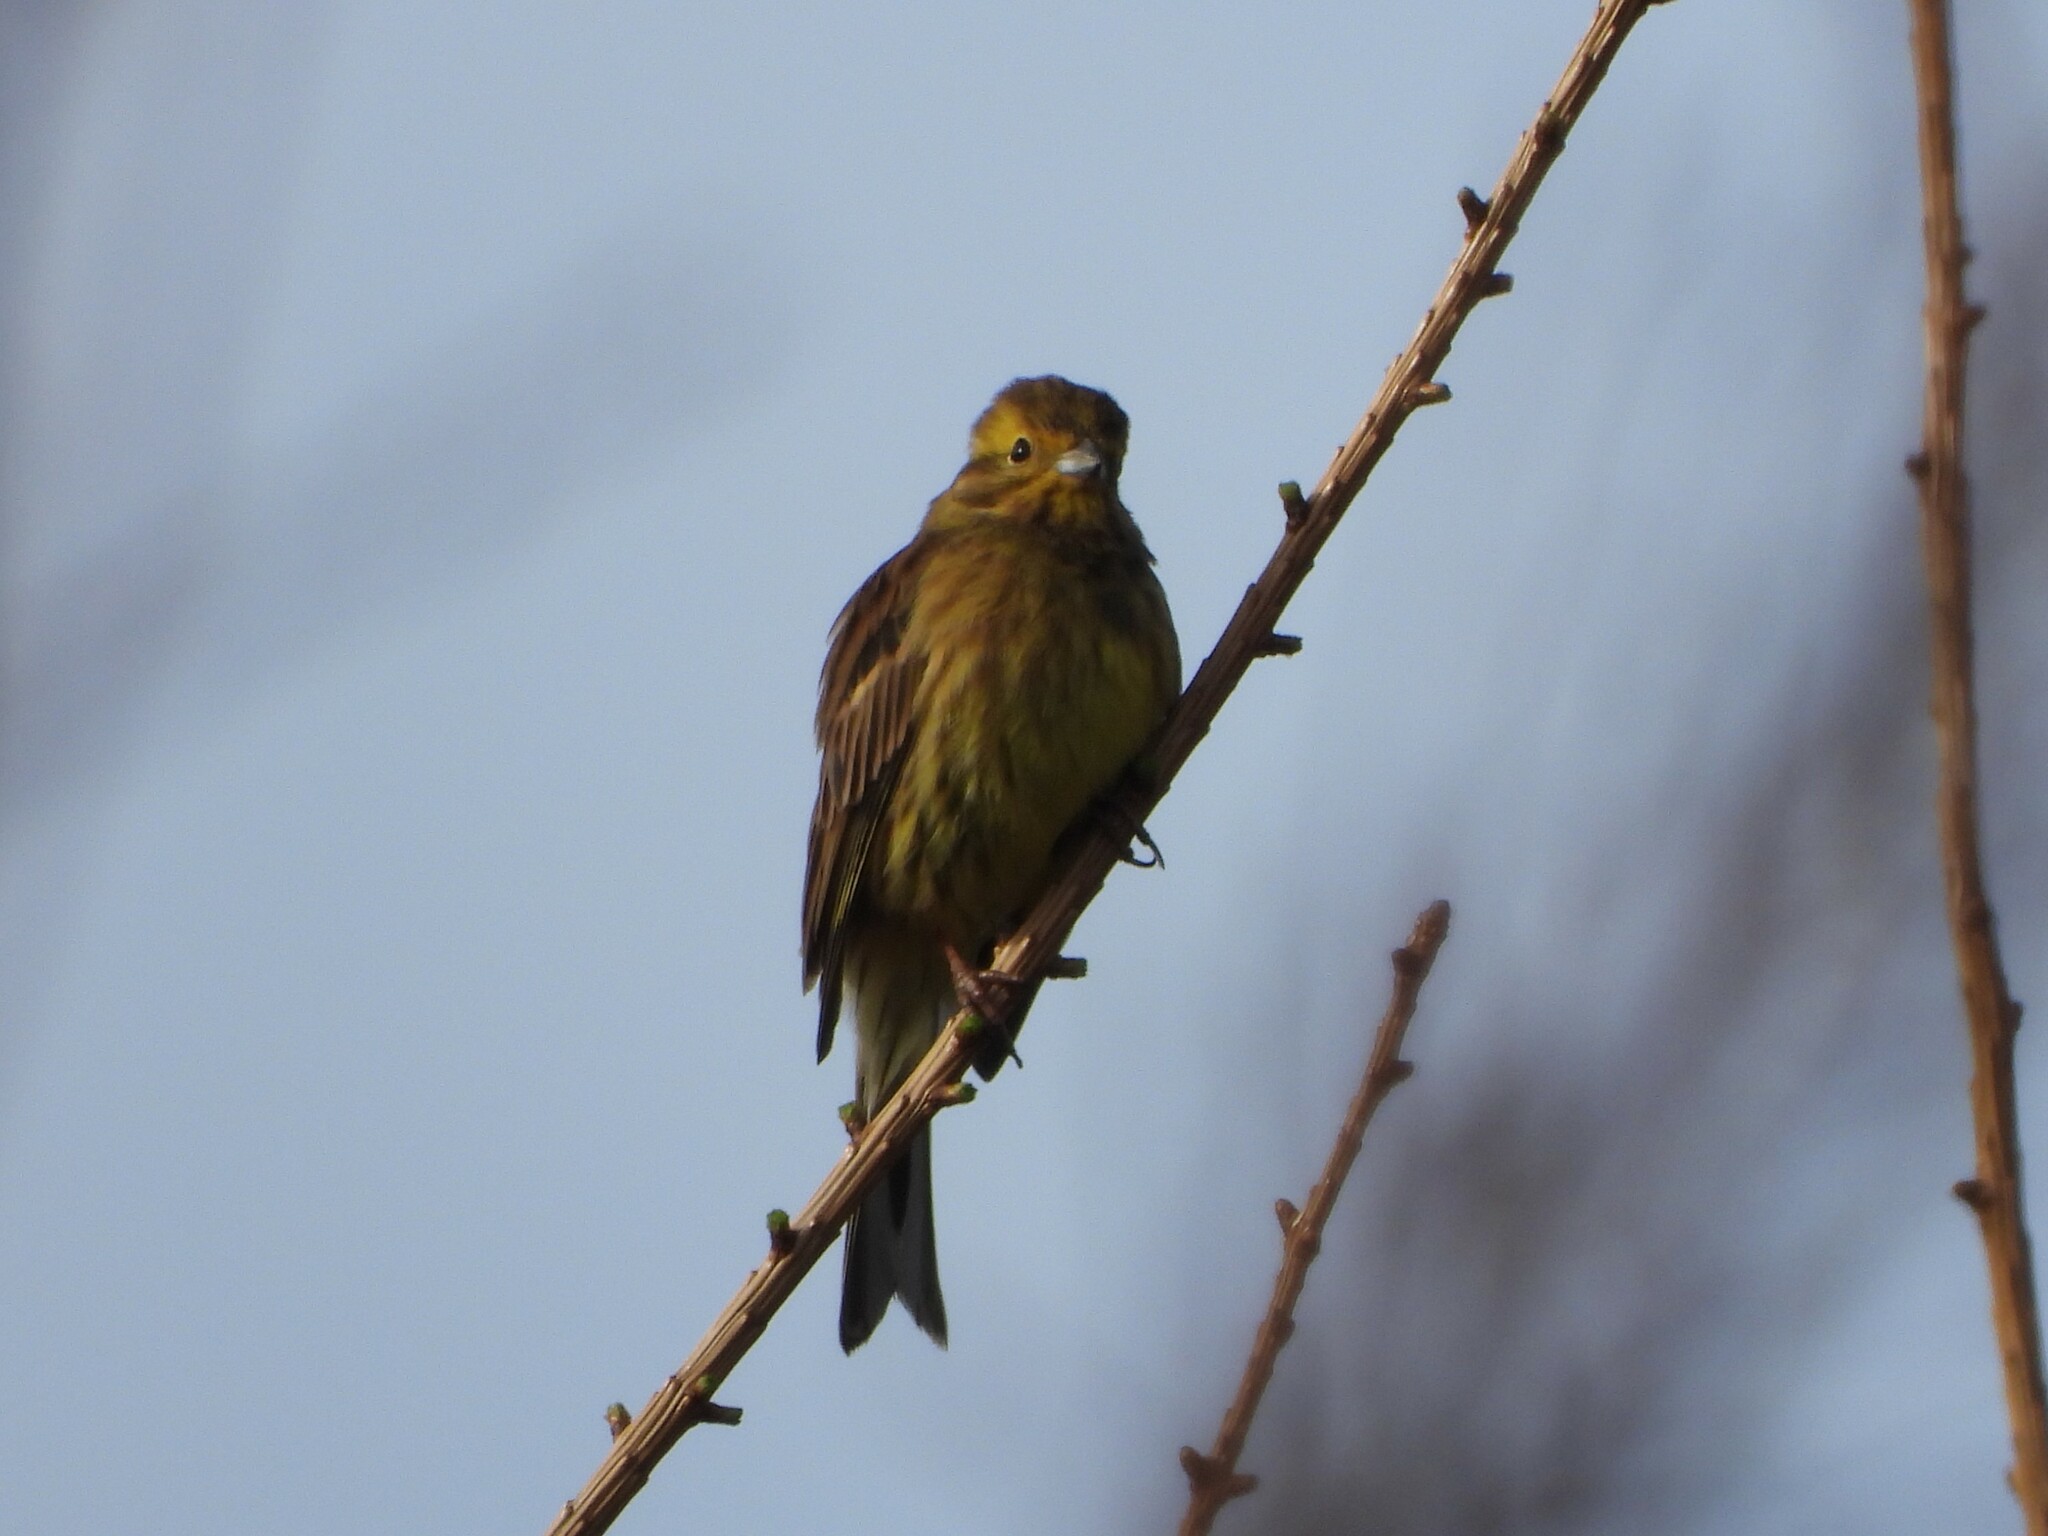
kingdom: Animalia
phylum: Chordata
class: Aves
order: Passeriformes
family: Emberizidae
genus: Emberiza
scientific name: Emberiza citrinella
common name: Yellowhammer
